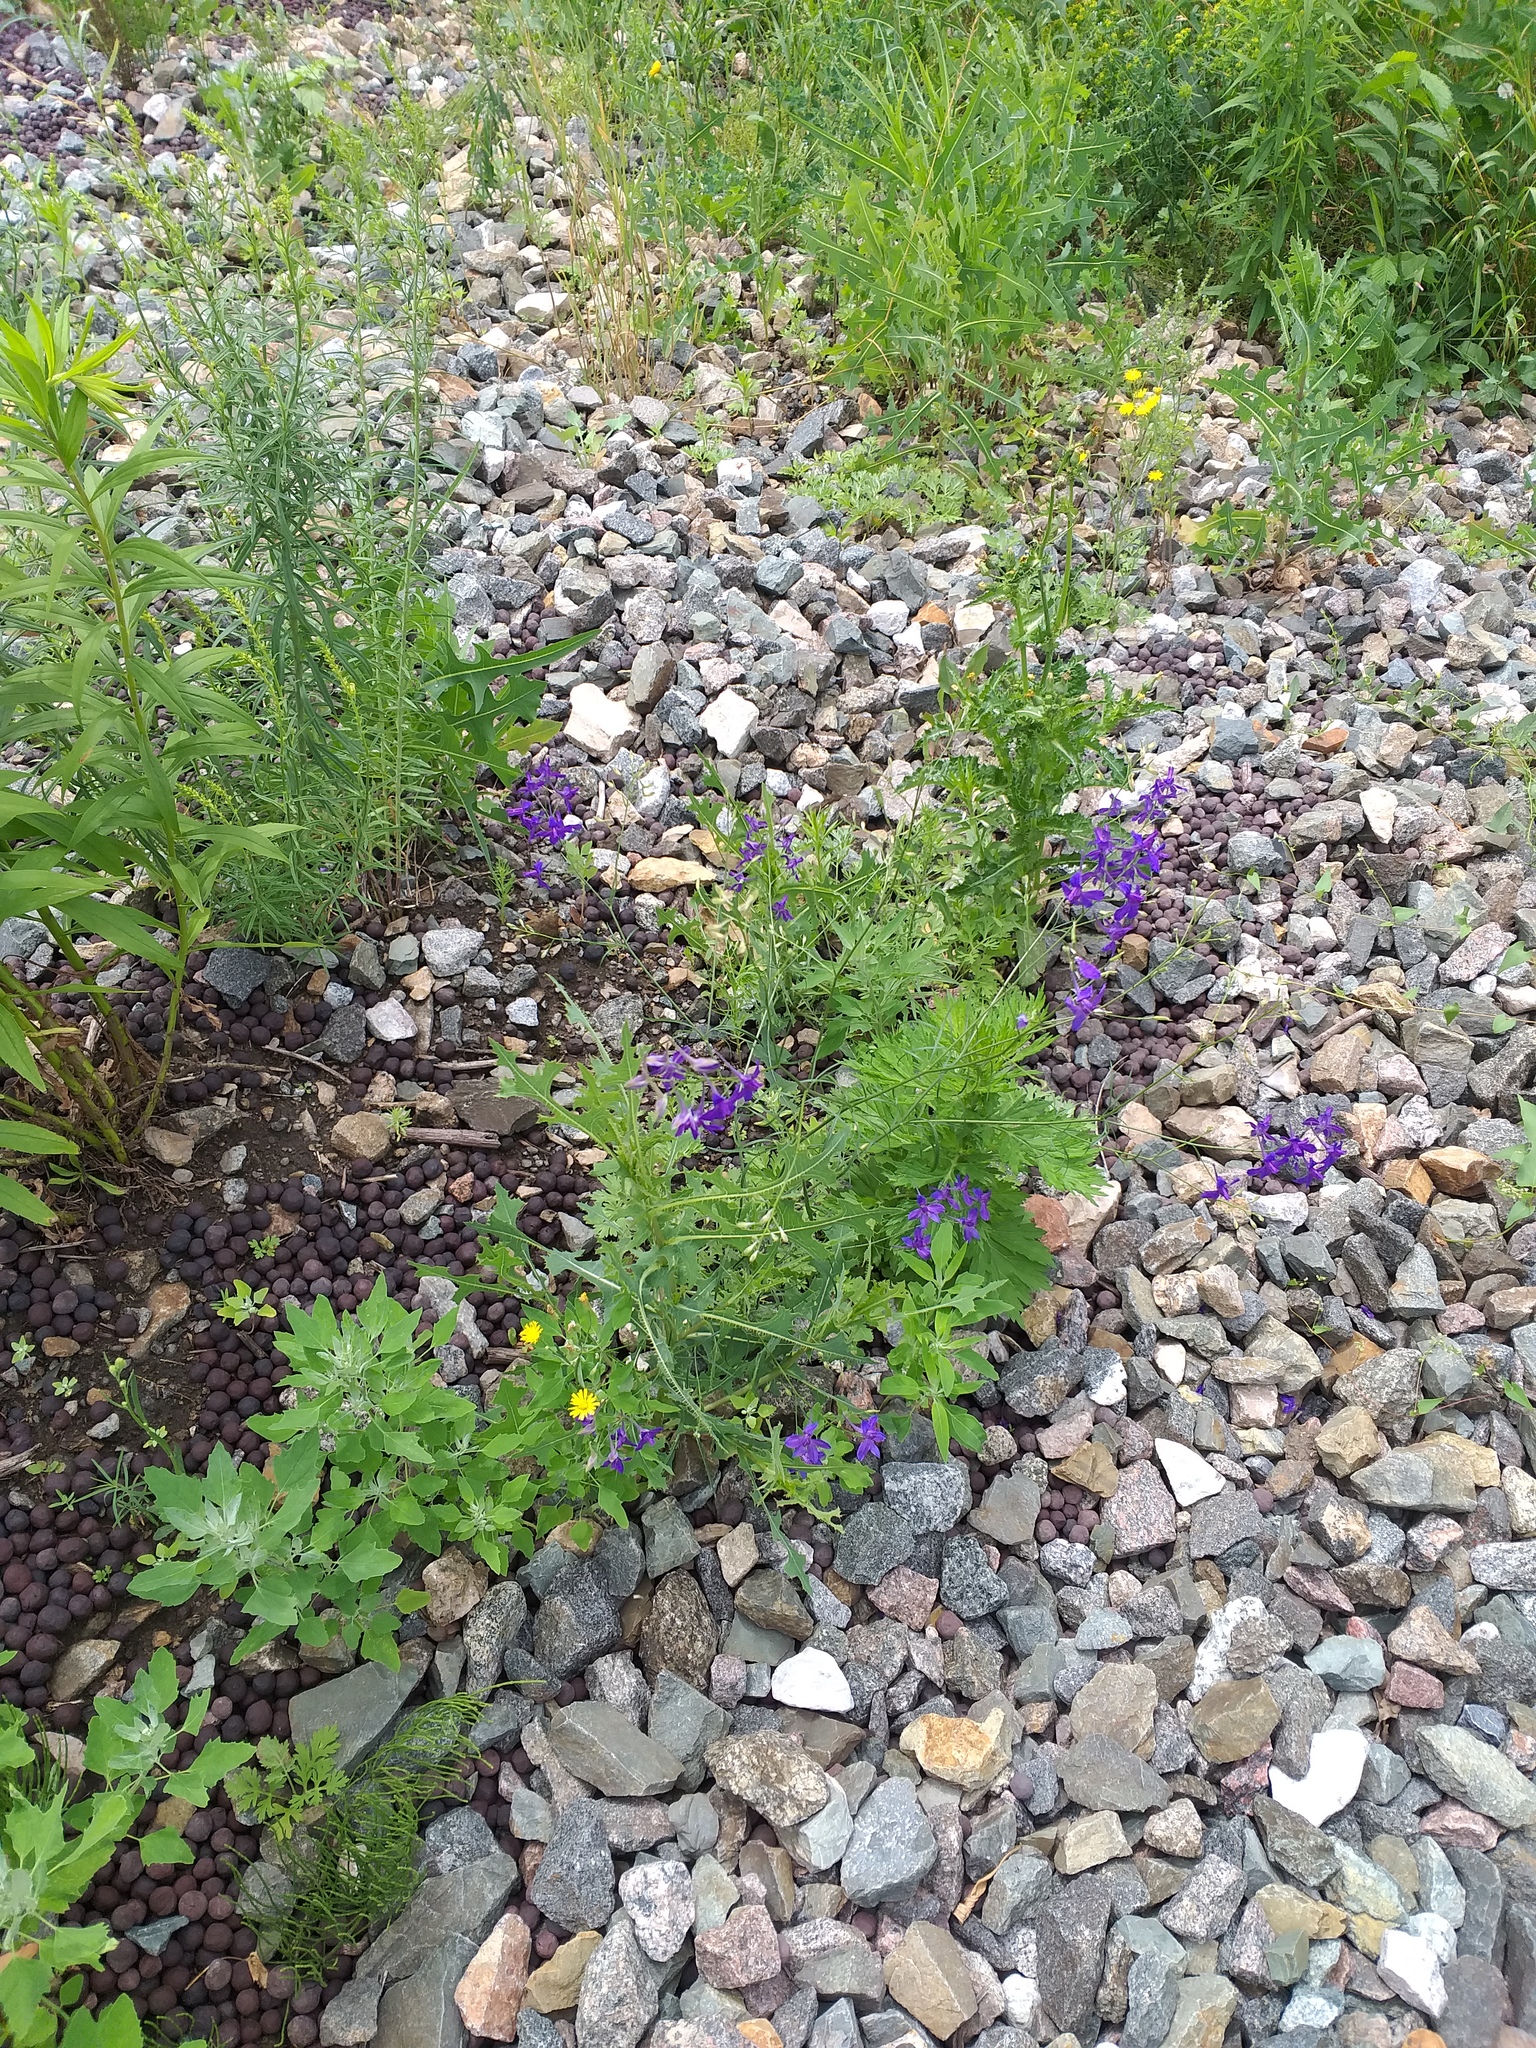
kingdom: Plantae
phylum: Tracheophyta
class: Magnoliopsida
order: Ranunculales
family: Ranunculaceae
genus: Delphinium
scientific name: Delphinium consolida
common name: Branching larkspur
